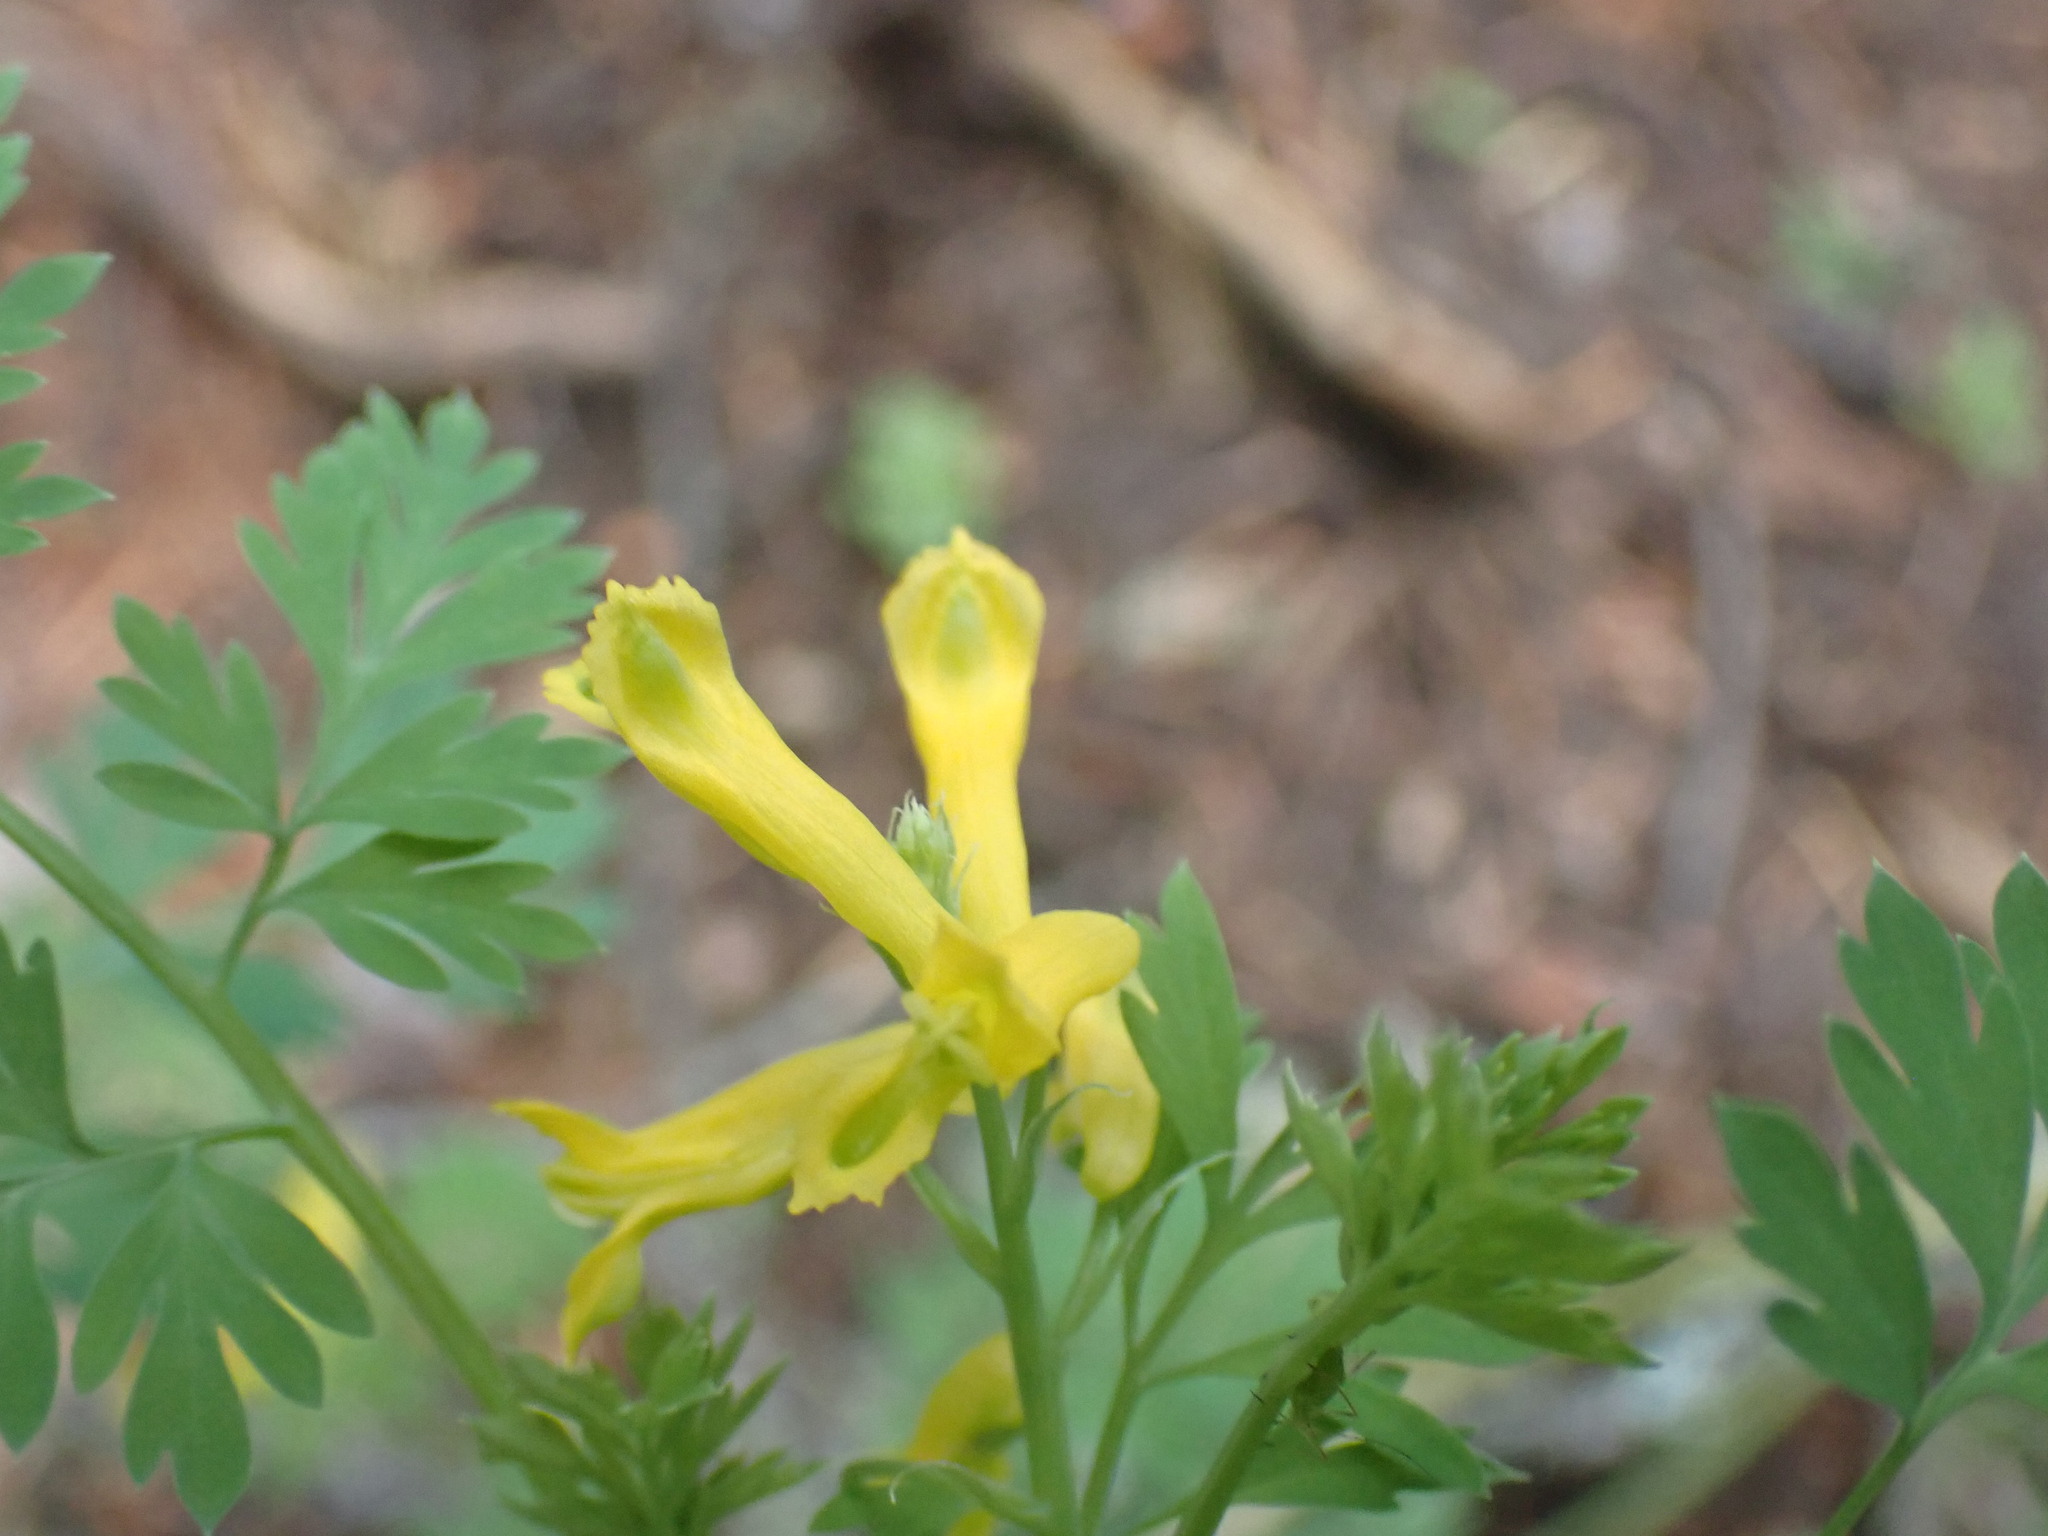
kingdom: Plantae
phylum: Tracheophyta
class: Magnoliopsida
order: Ranunculales
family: Papaveraceae
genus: Corydalis
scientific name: Corydalis aurea
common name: Golden corydalis
